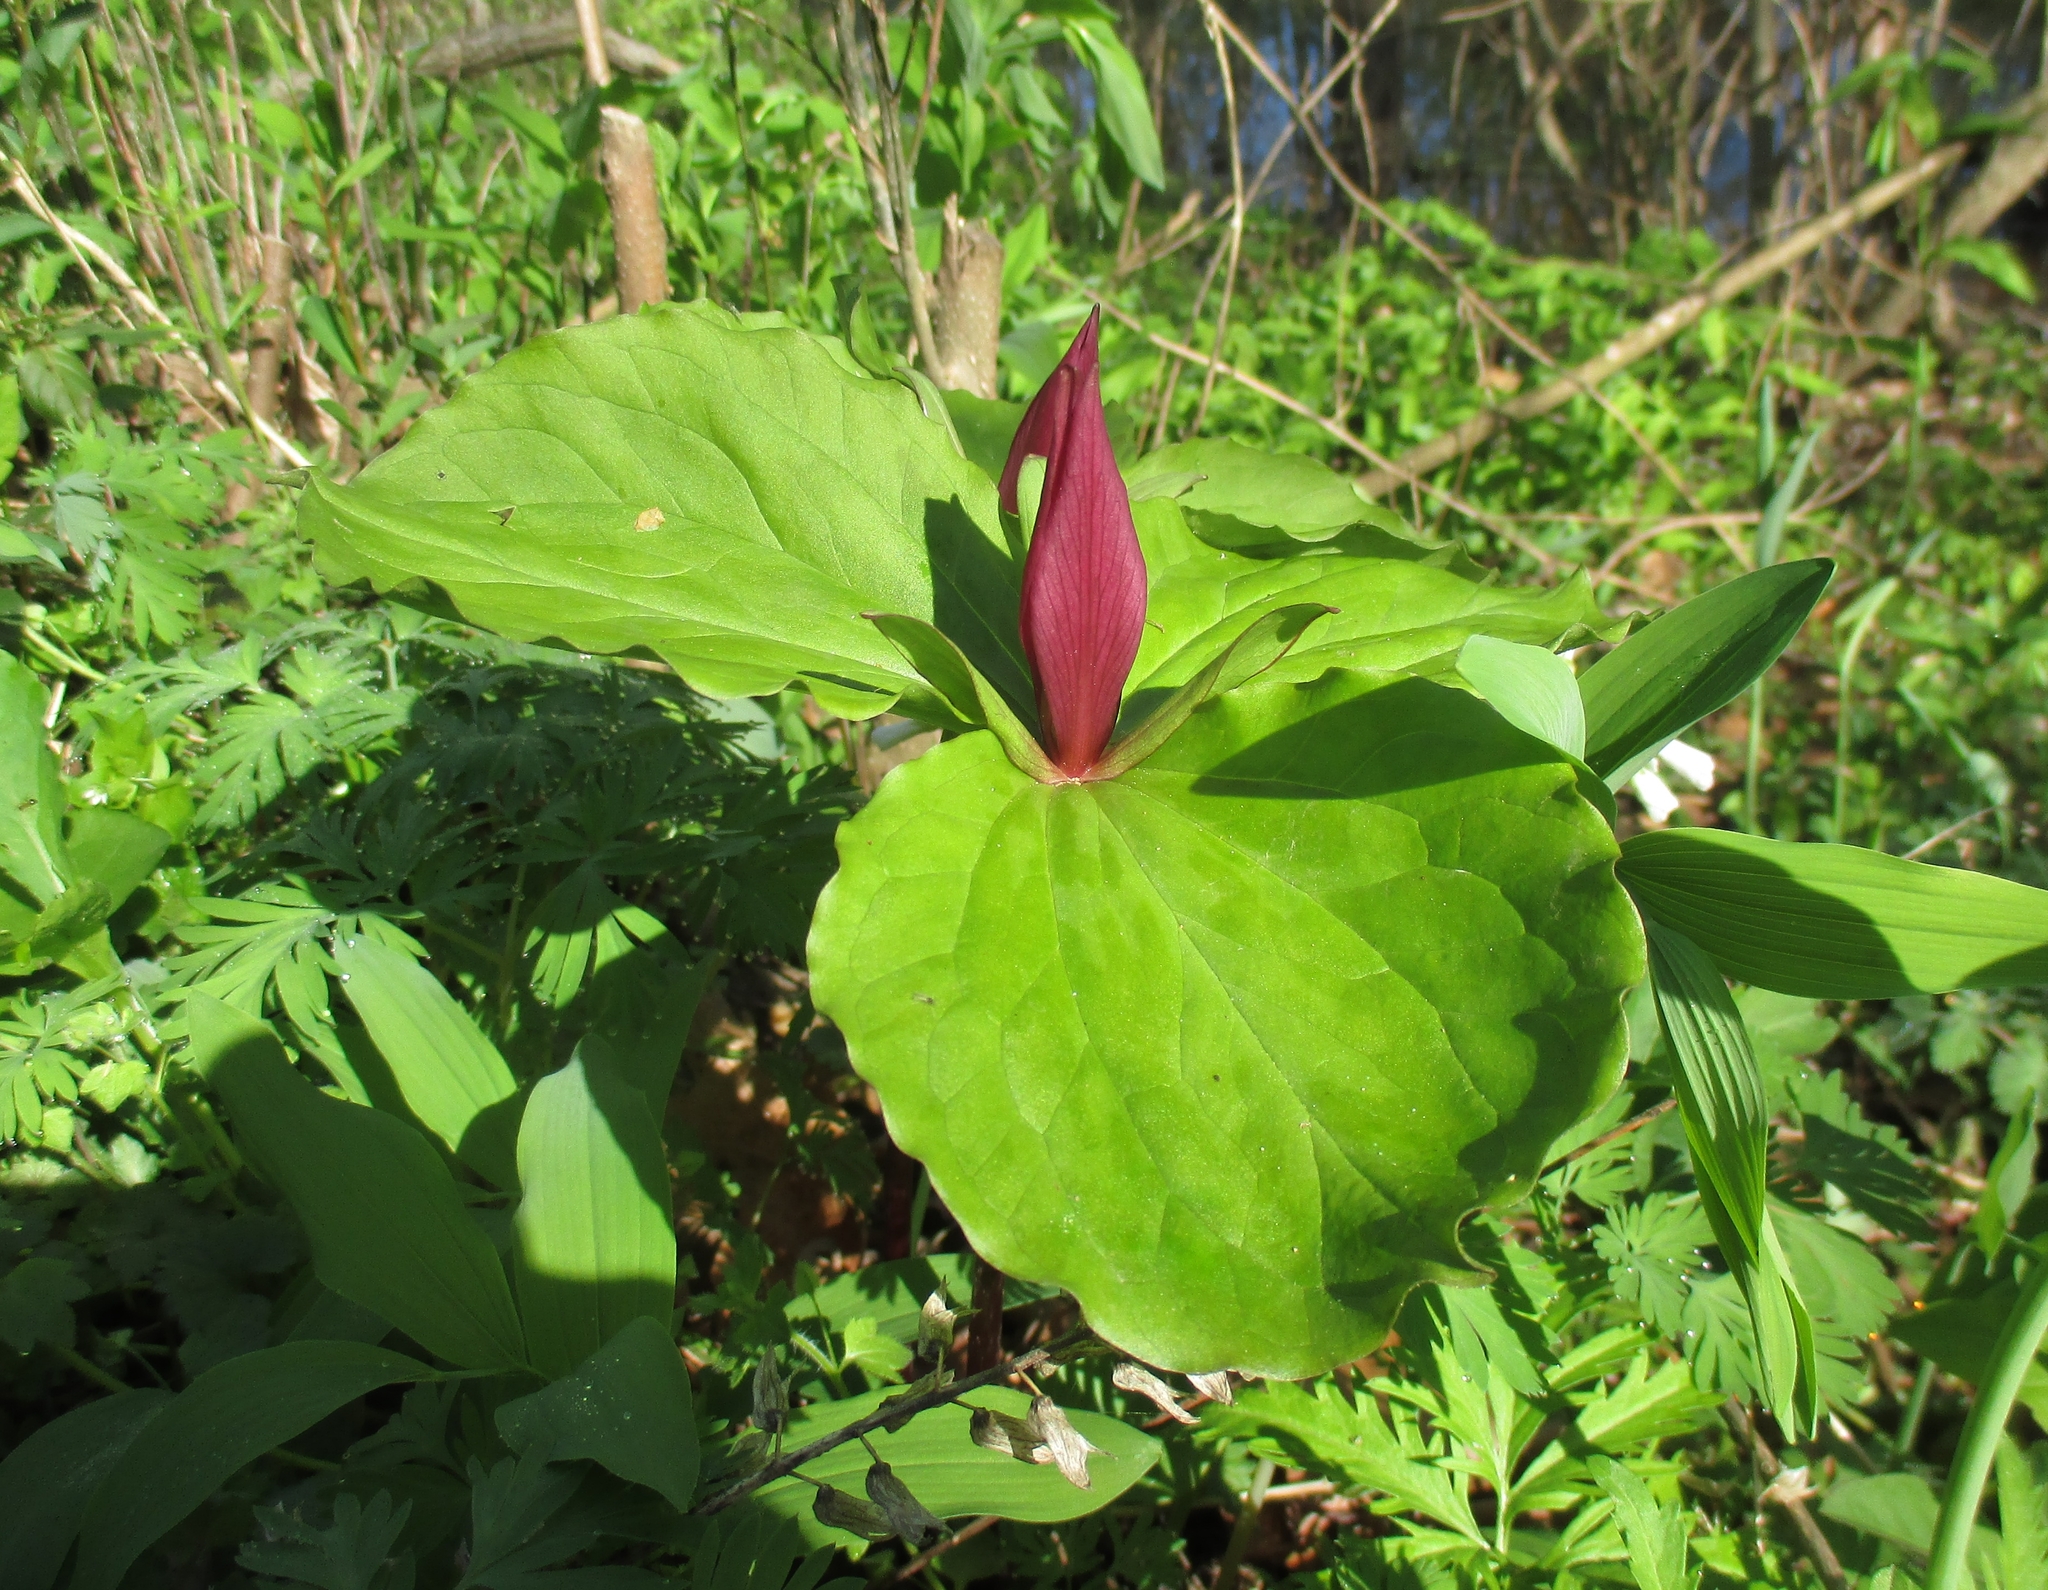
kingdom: Plantae
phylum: Tracheophyta
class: Liliopsida
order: Liliales
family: Melanthiaceae
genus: Trillium
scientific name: Trillium sessile
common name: Sessile trillium
